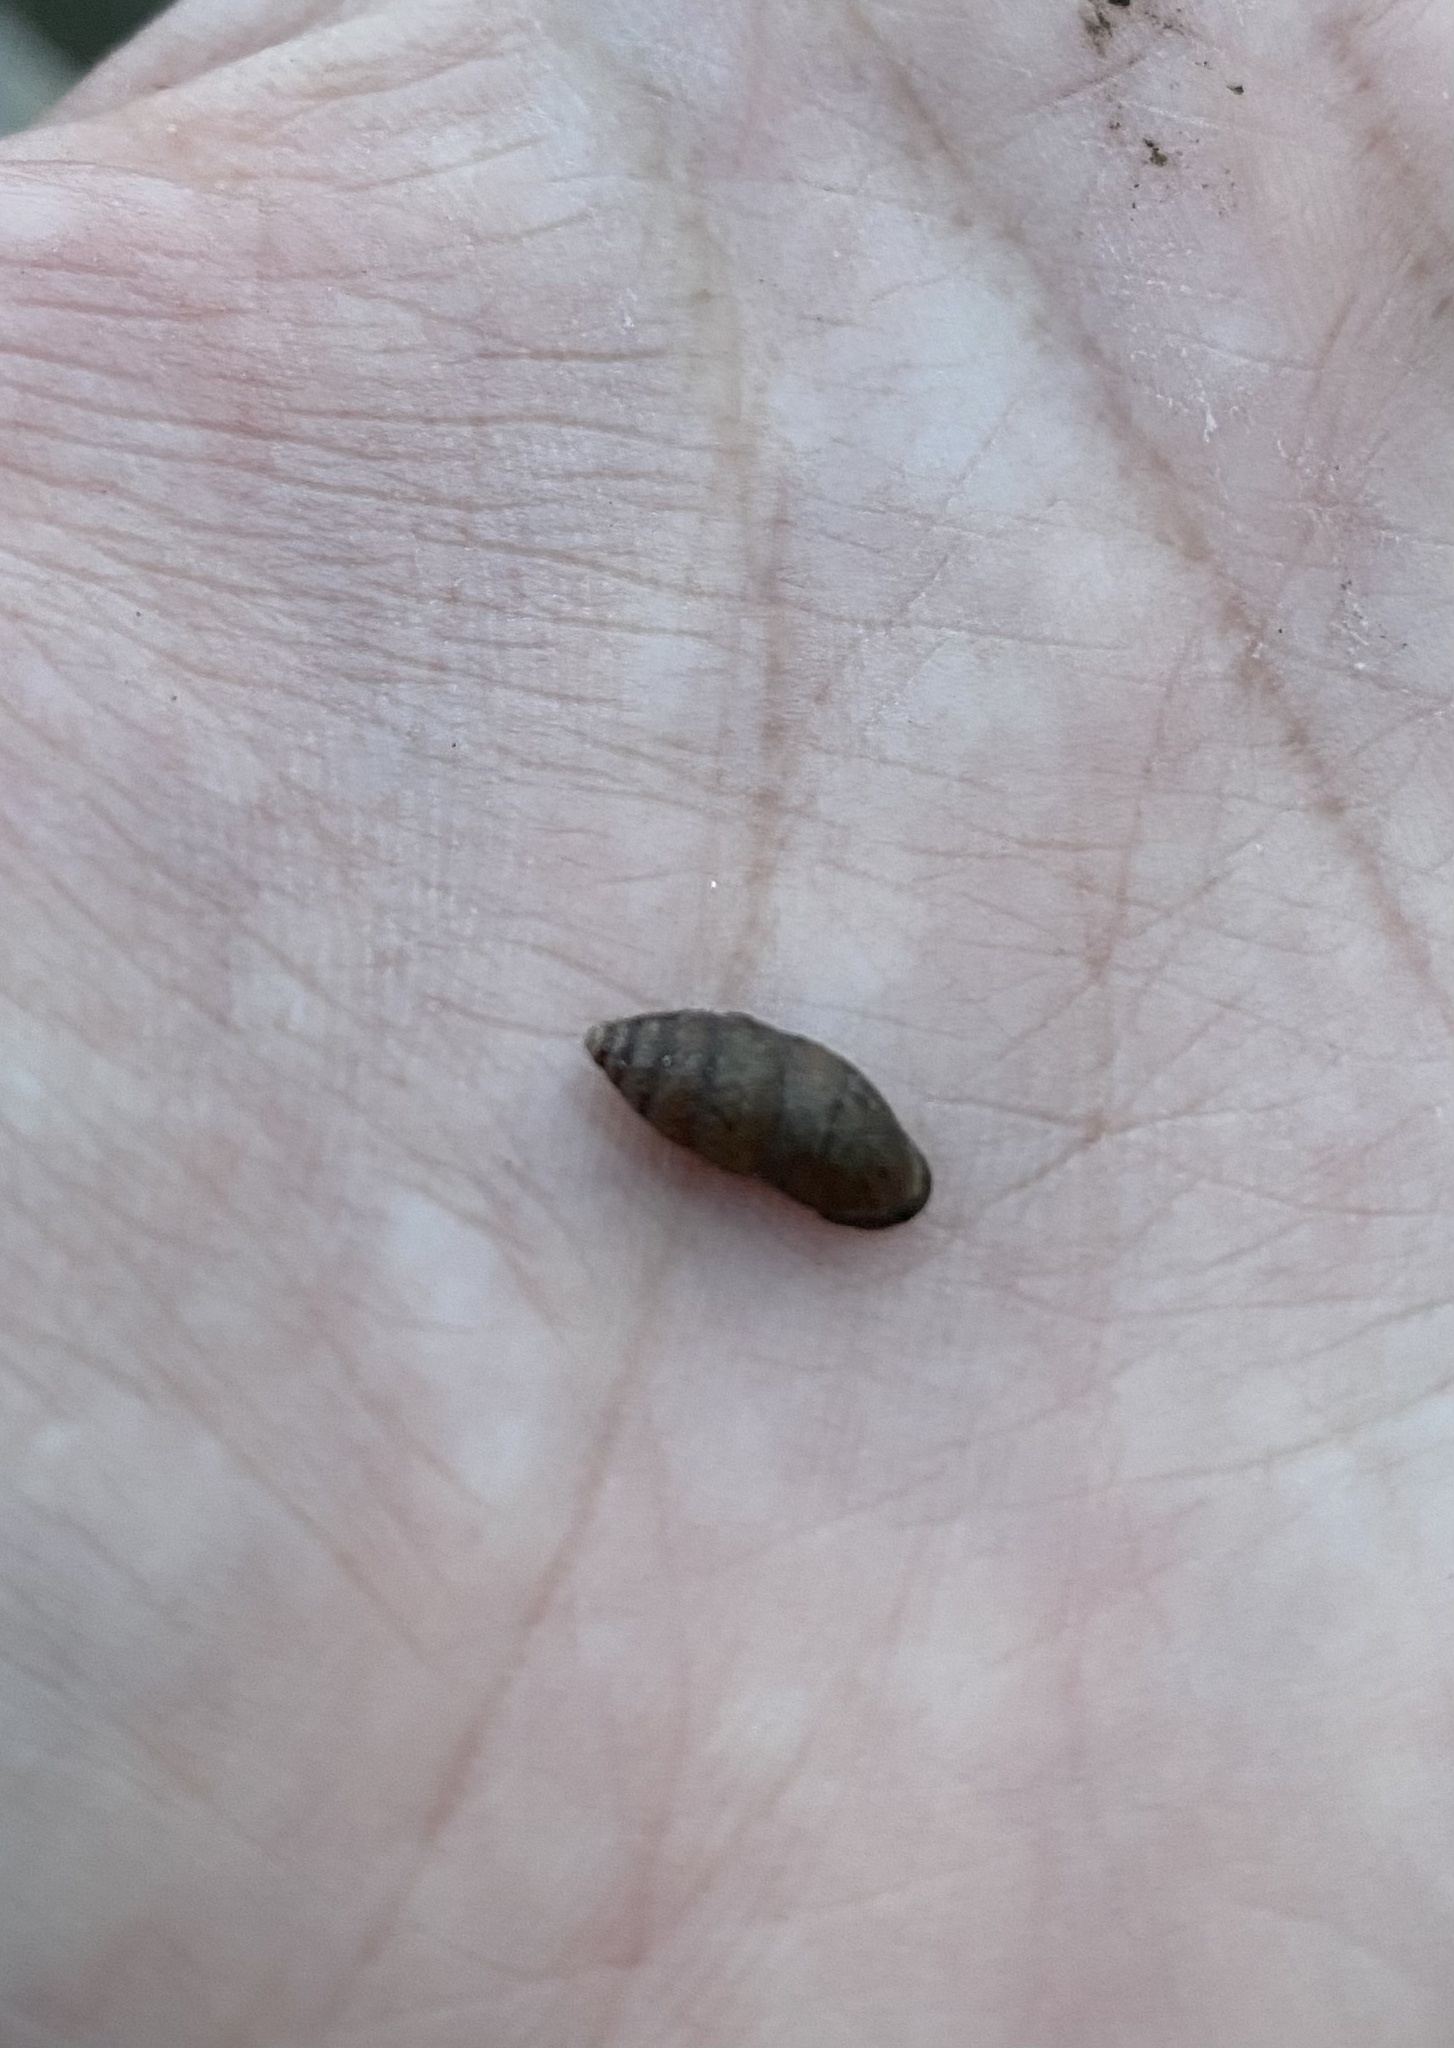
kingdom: Animalia
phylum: Mollusca
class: Gastropoda
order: Stylommatophora
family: Enidae
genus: Chondrula
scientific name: Chondrula tridens
